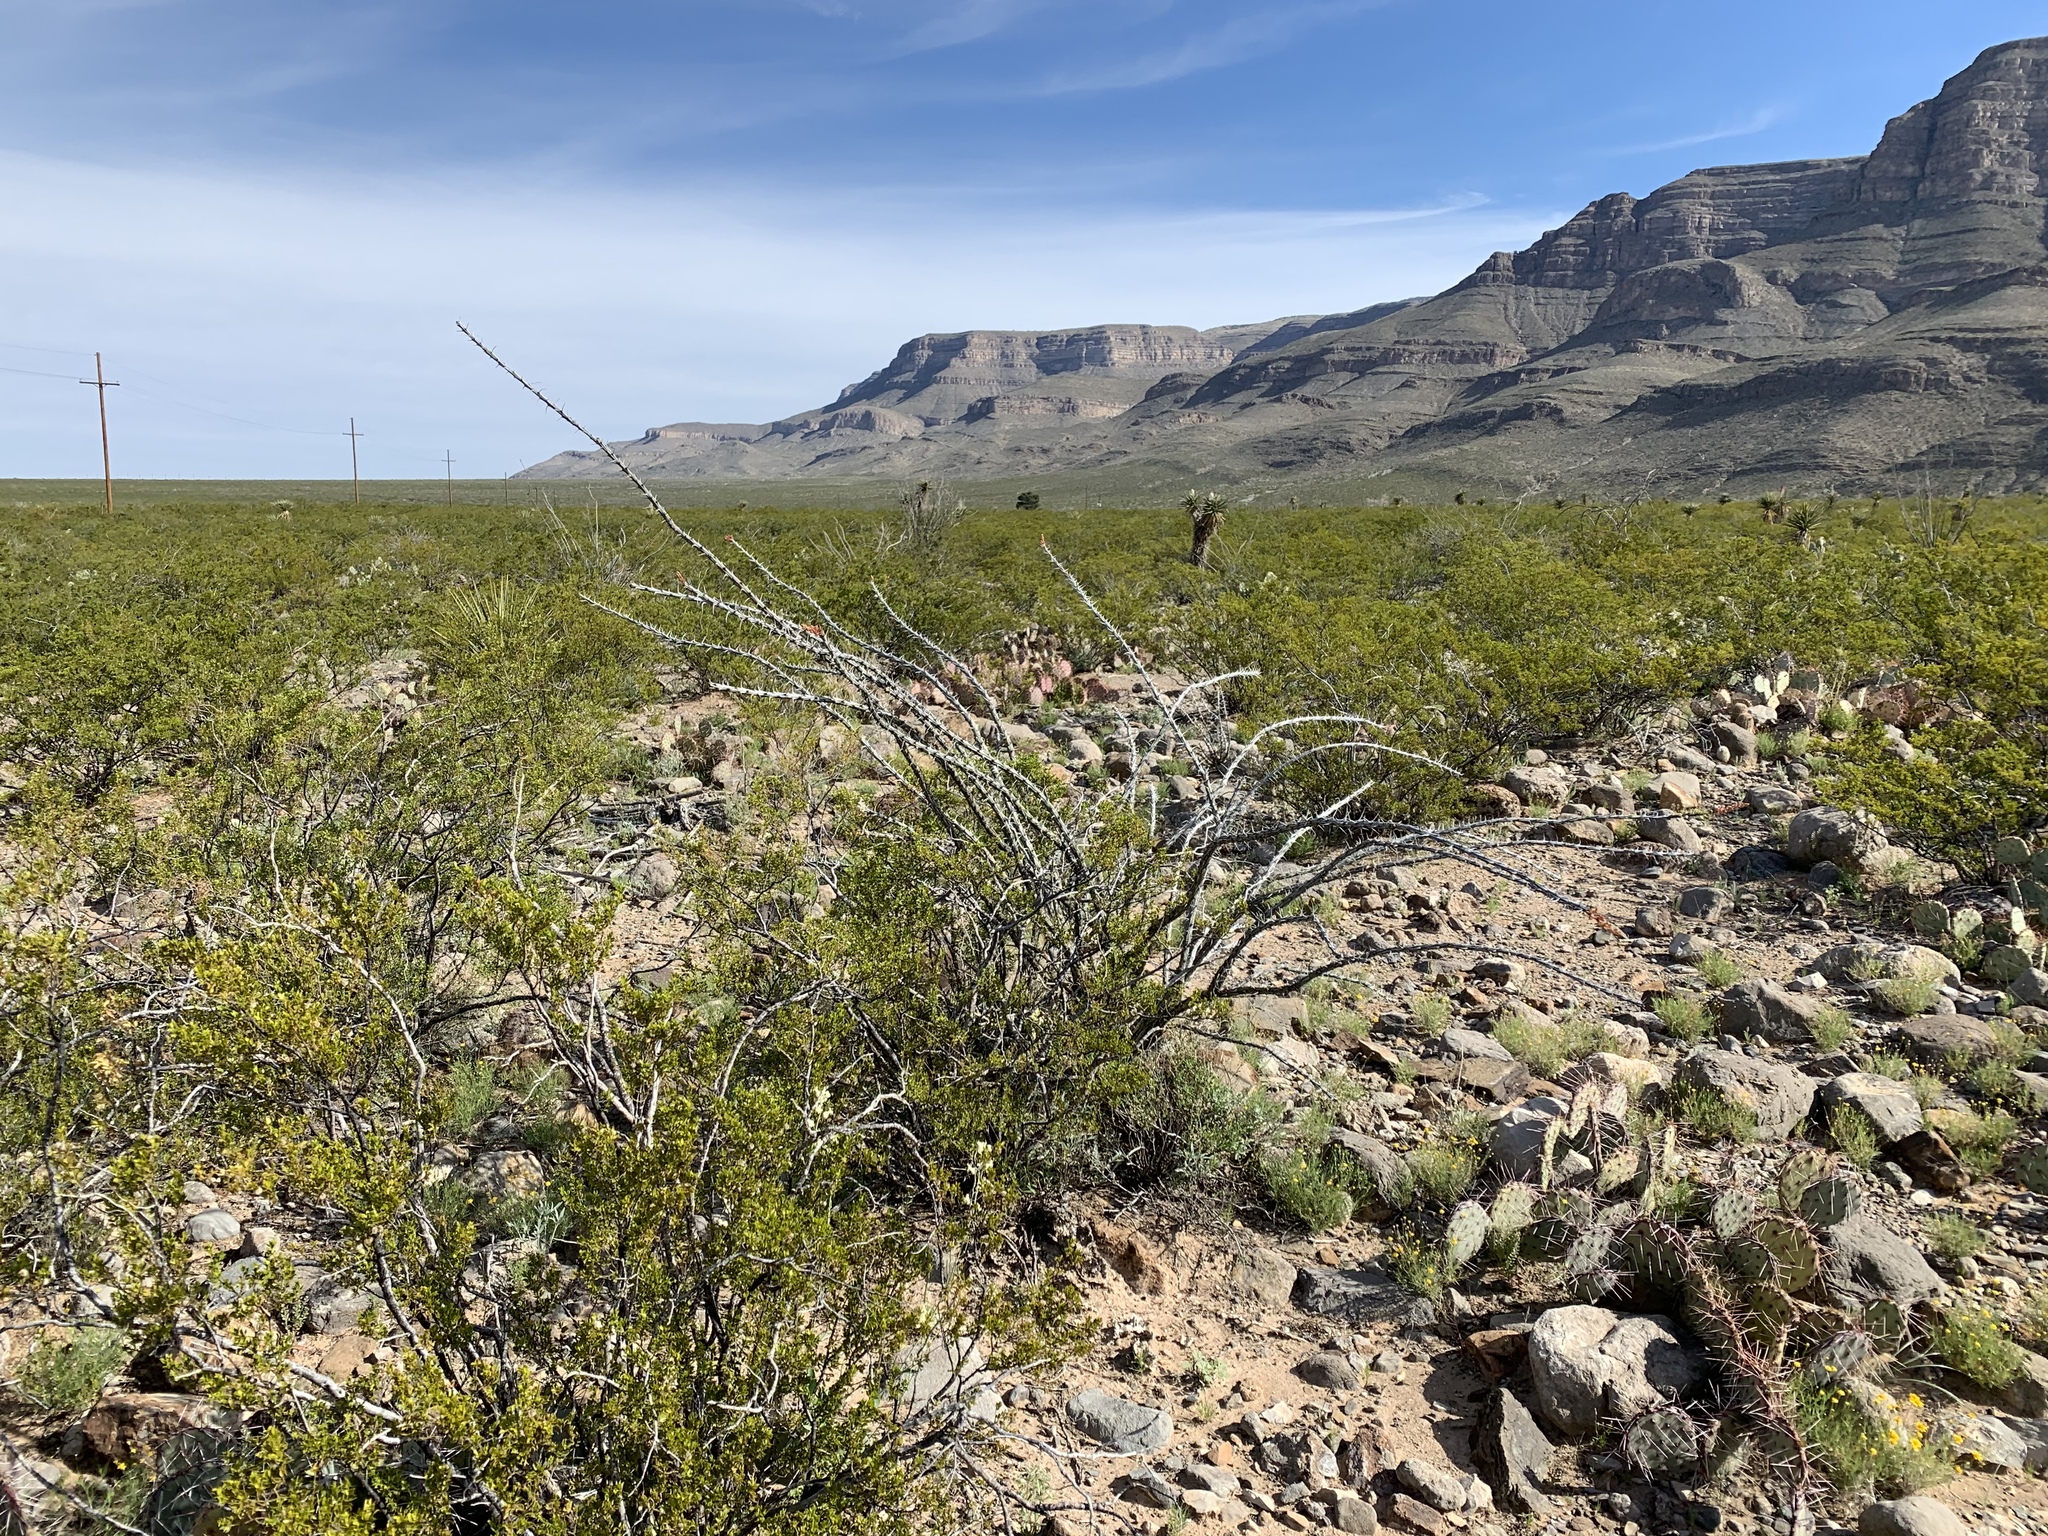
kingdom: Plantae
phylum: Tracheophyta
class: Magnoliopsida
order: Ericales
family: Fouquieriaceae
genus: Fouquieria
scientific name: Fouquieria splendens
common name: Vine-cactus
